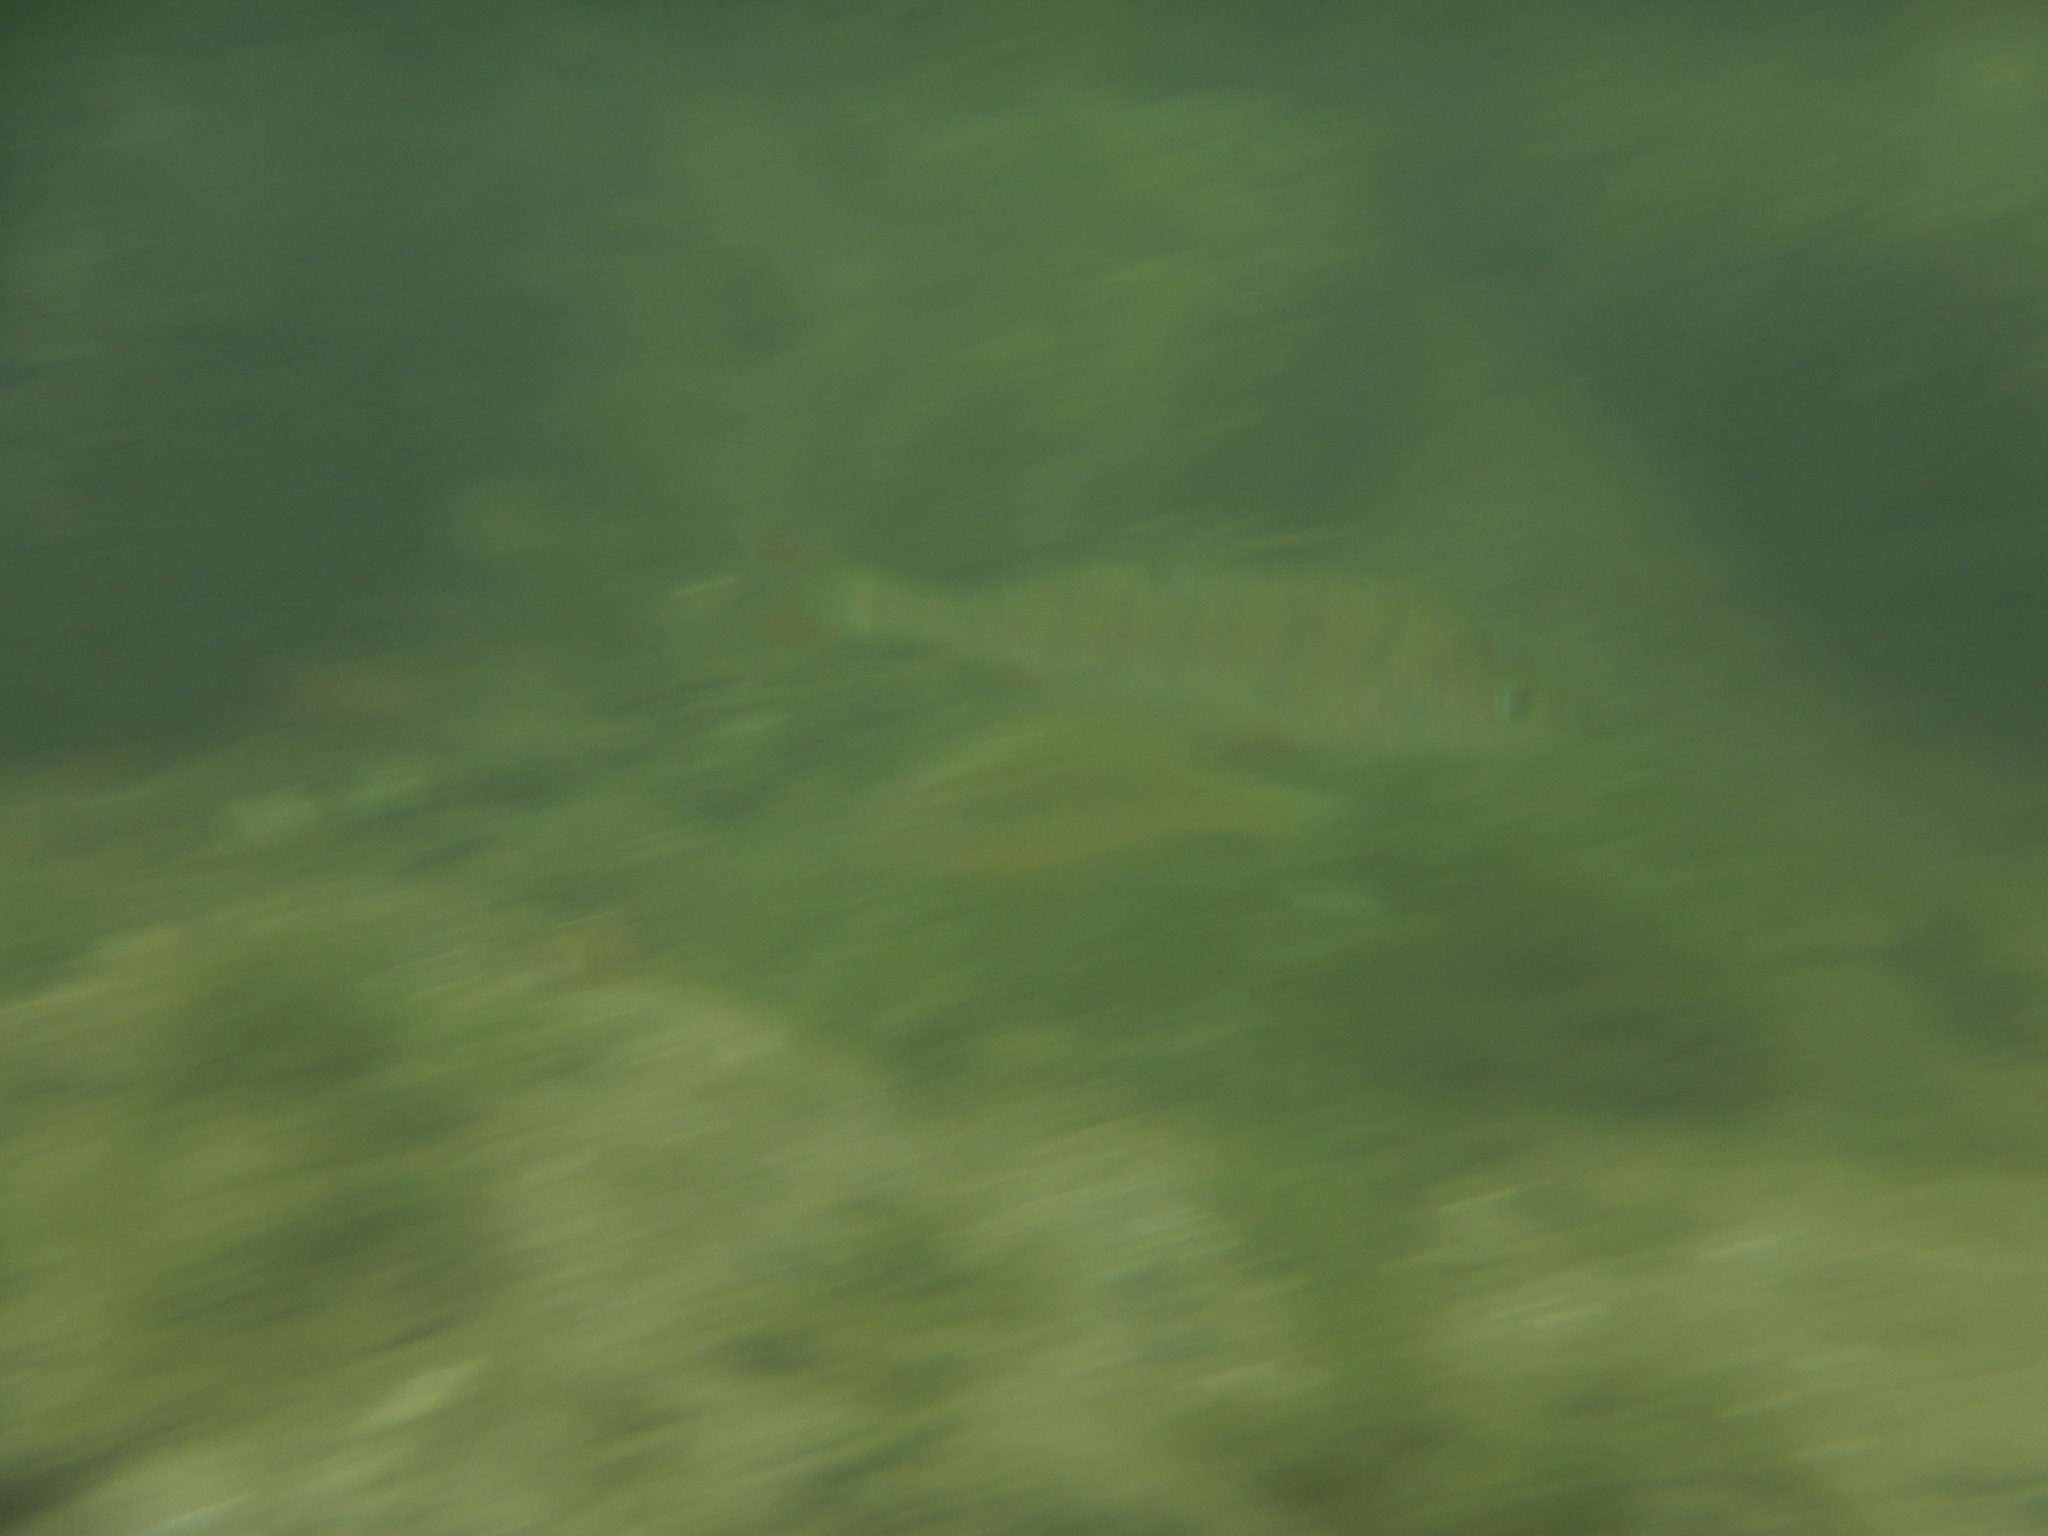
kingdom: Animalia
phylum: Chordata
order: Perciformes
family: Percidae
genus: Perca
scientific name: Perca fluviatilis
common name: Perch
